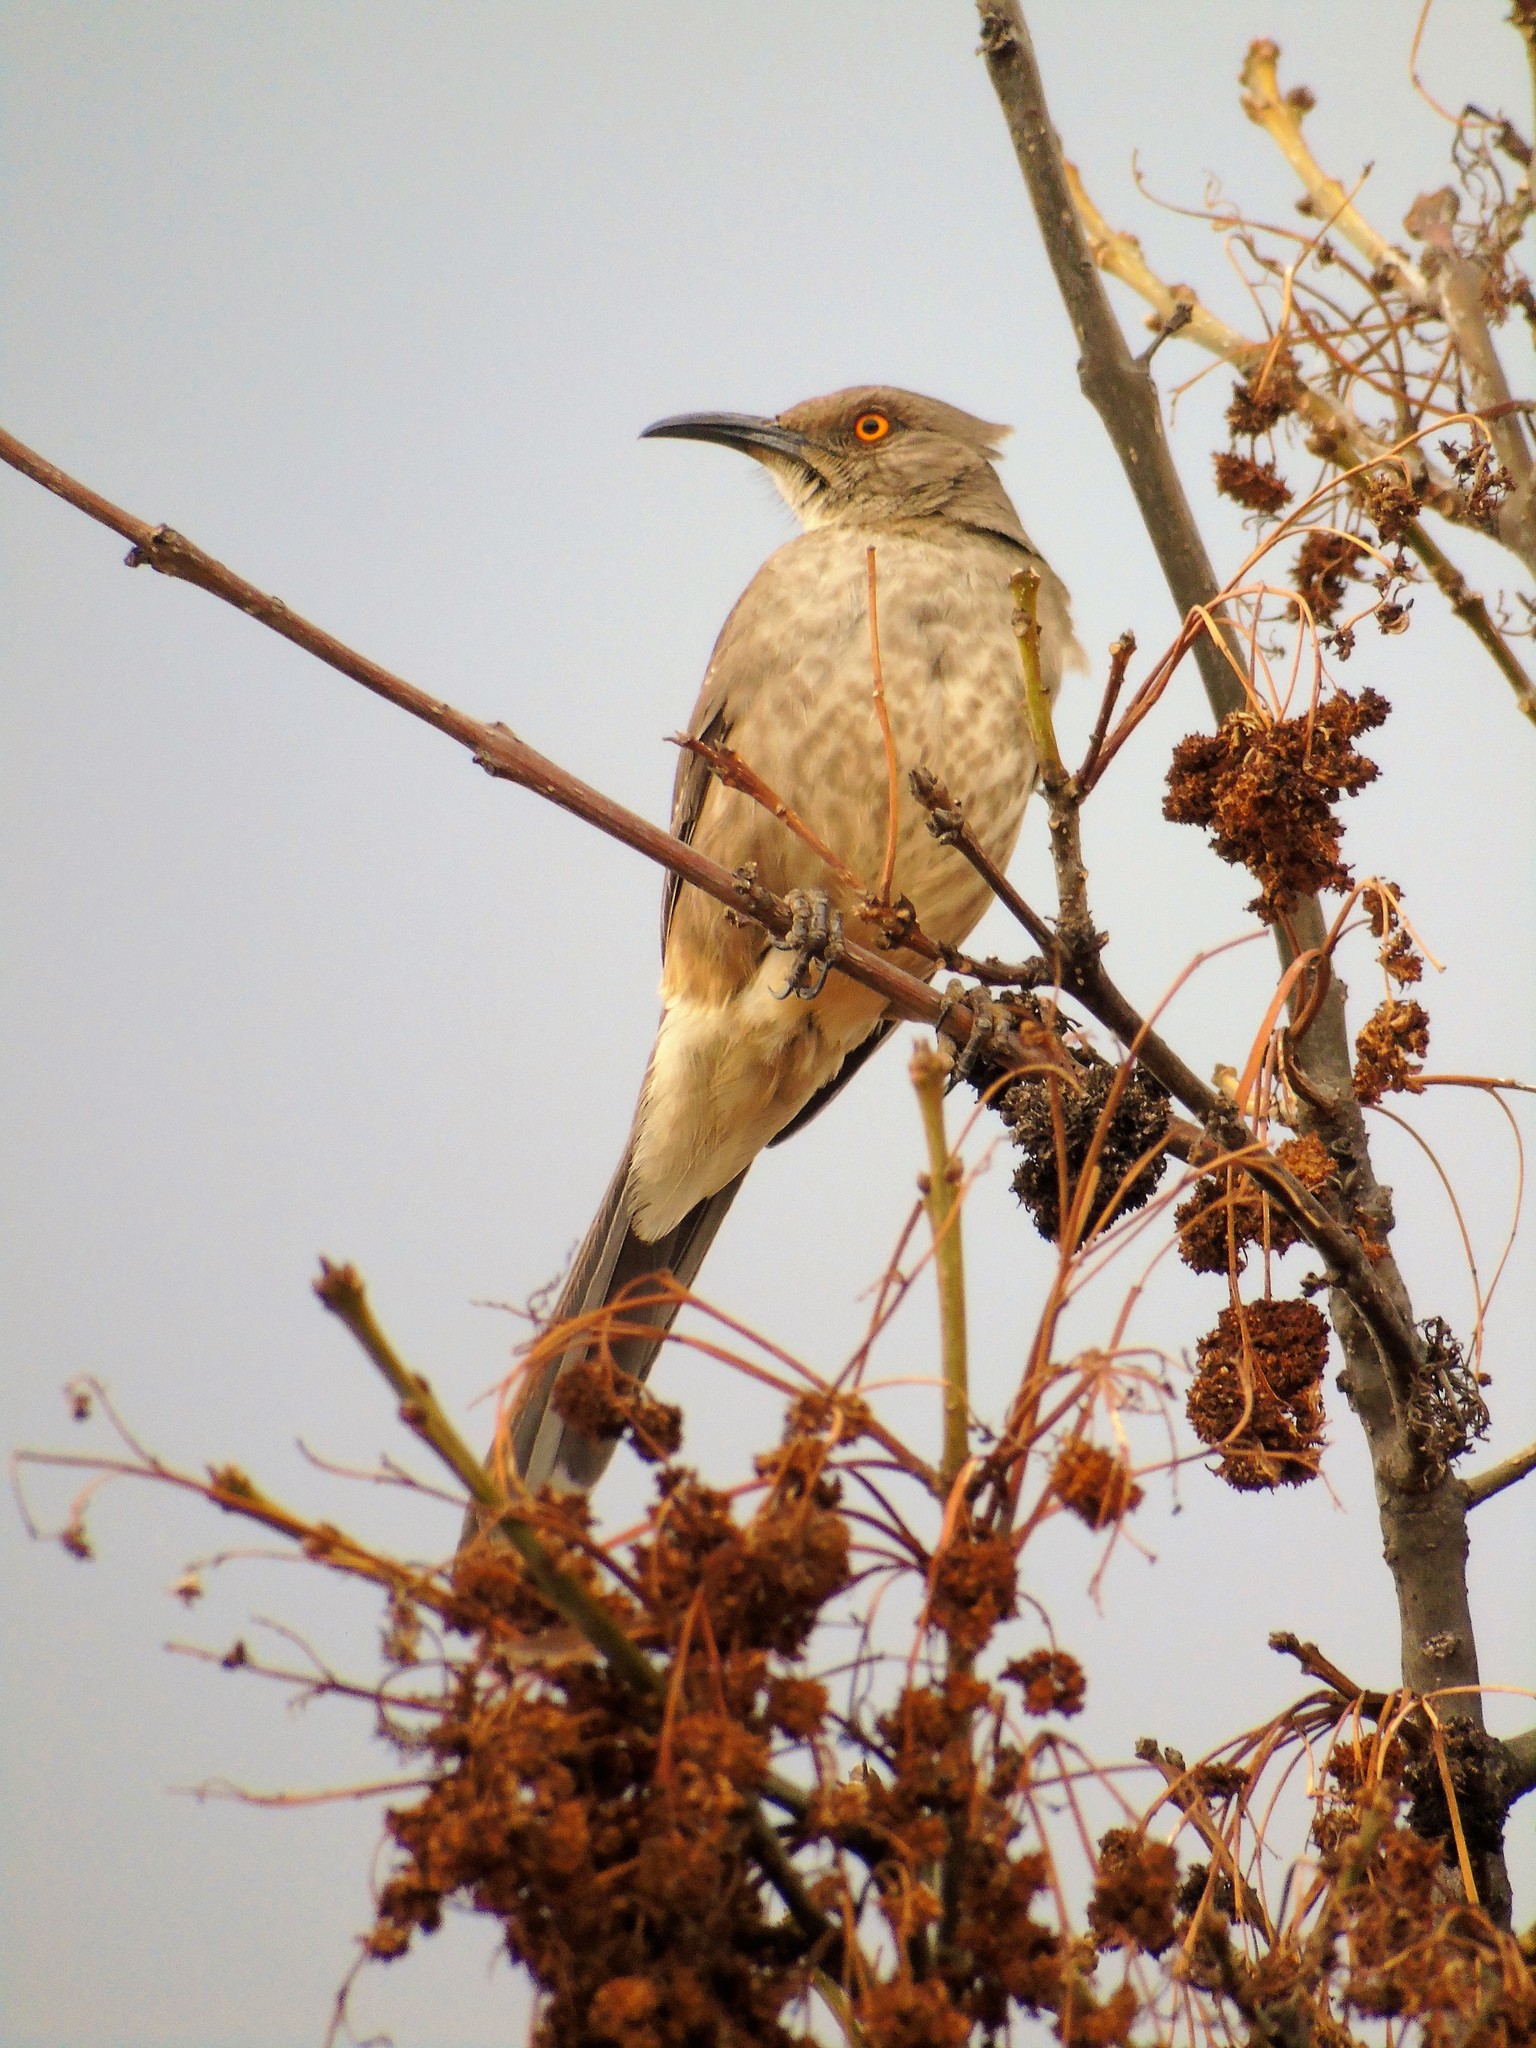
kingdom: Animalia
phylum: Chordata
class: Aves
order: Passeriformes
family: Mimidae
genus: Toxostoma
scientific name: Toxostoma curvirostre
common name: Curve-billed thrasher
